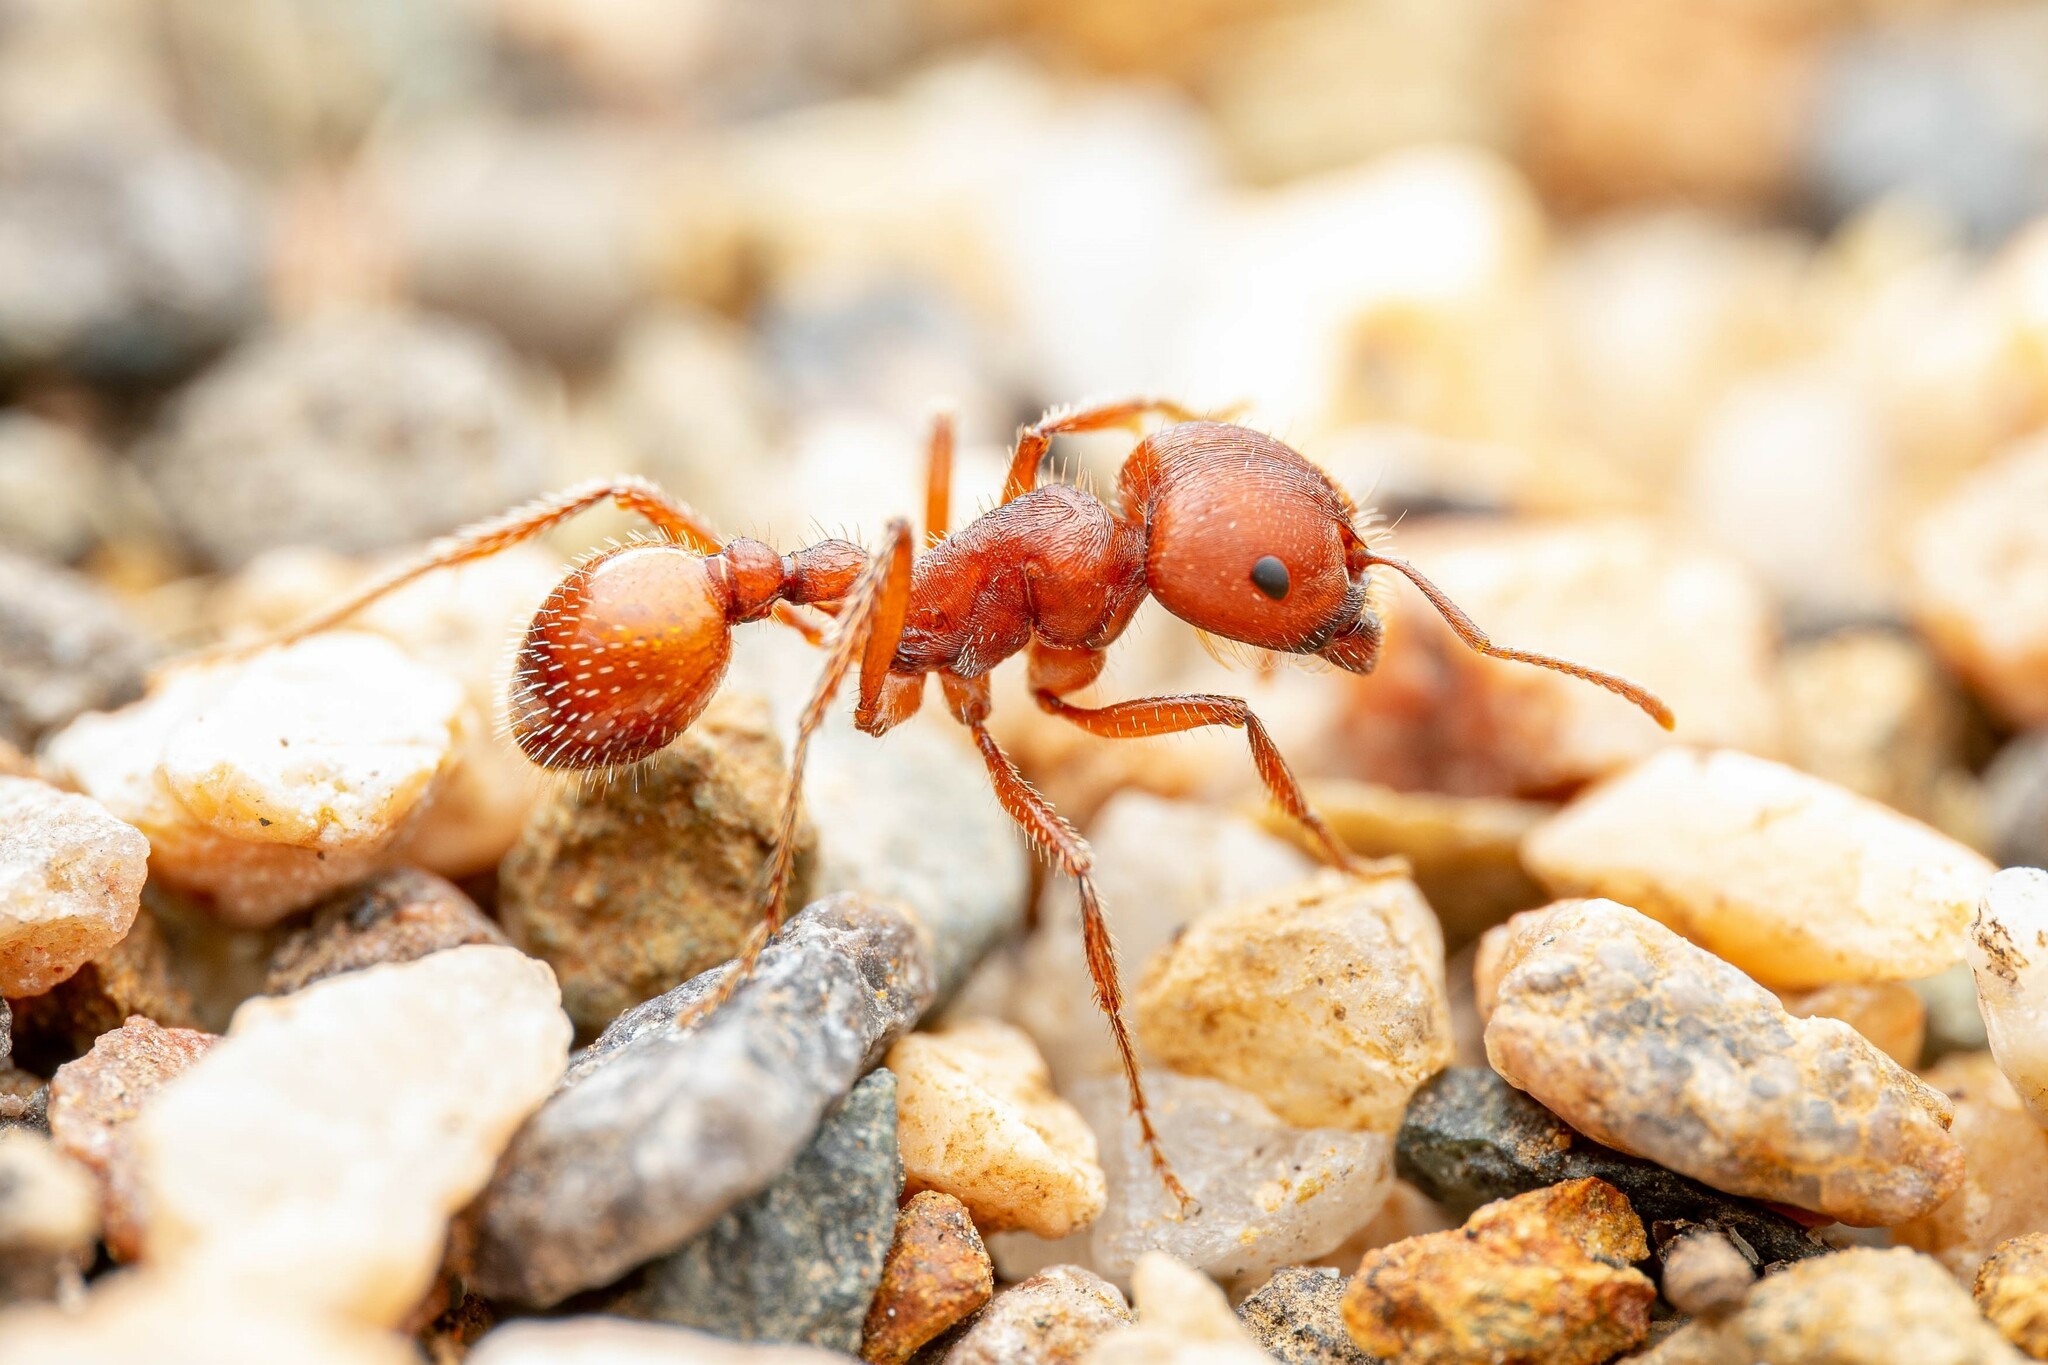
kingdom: Animalia
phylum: Arthropoda
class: Insecta
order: Hymenoptera
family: Formicidae
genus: Pogonomyrmex
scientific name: Pogonomyrmex barbatus
